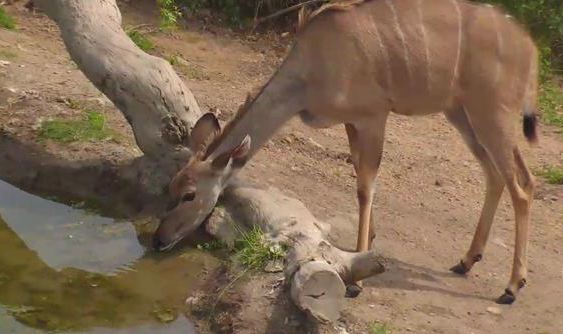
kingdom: Animalia
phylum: Chordata
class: Mammalia
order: Artiodactyla
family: Bovidae
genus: Tragelaphus
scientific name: Tragelaphus strepsiceros
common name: Greater kudu
